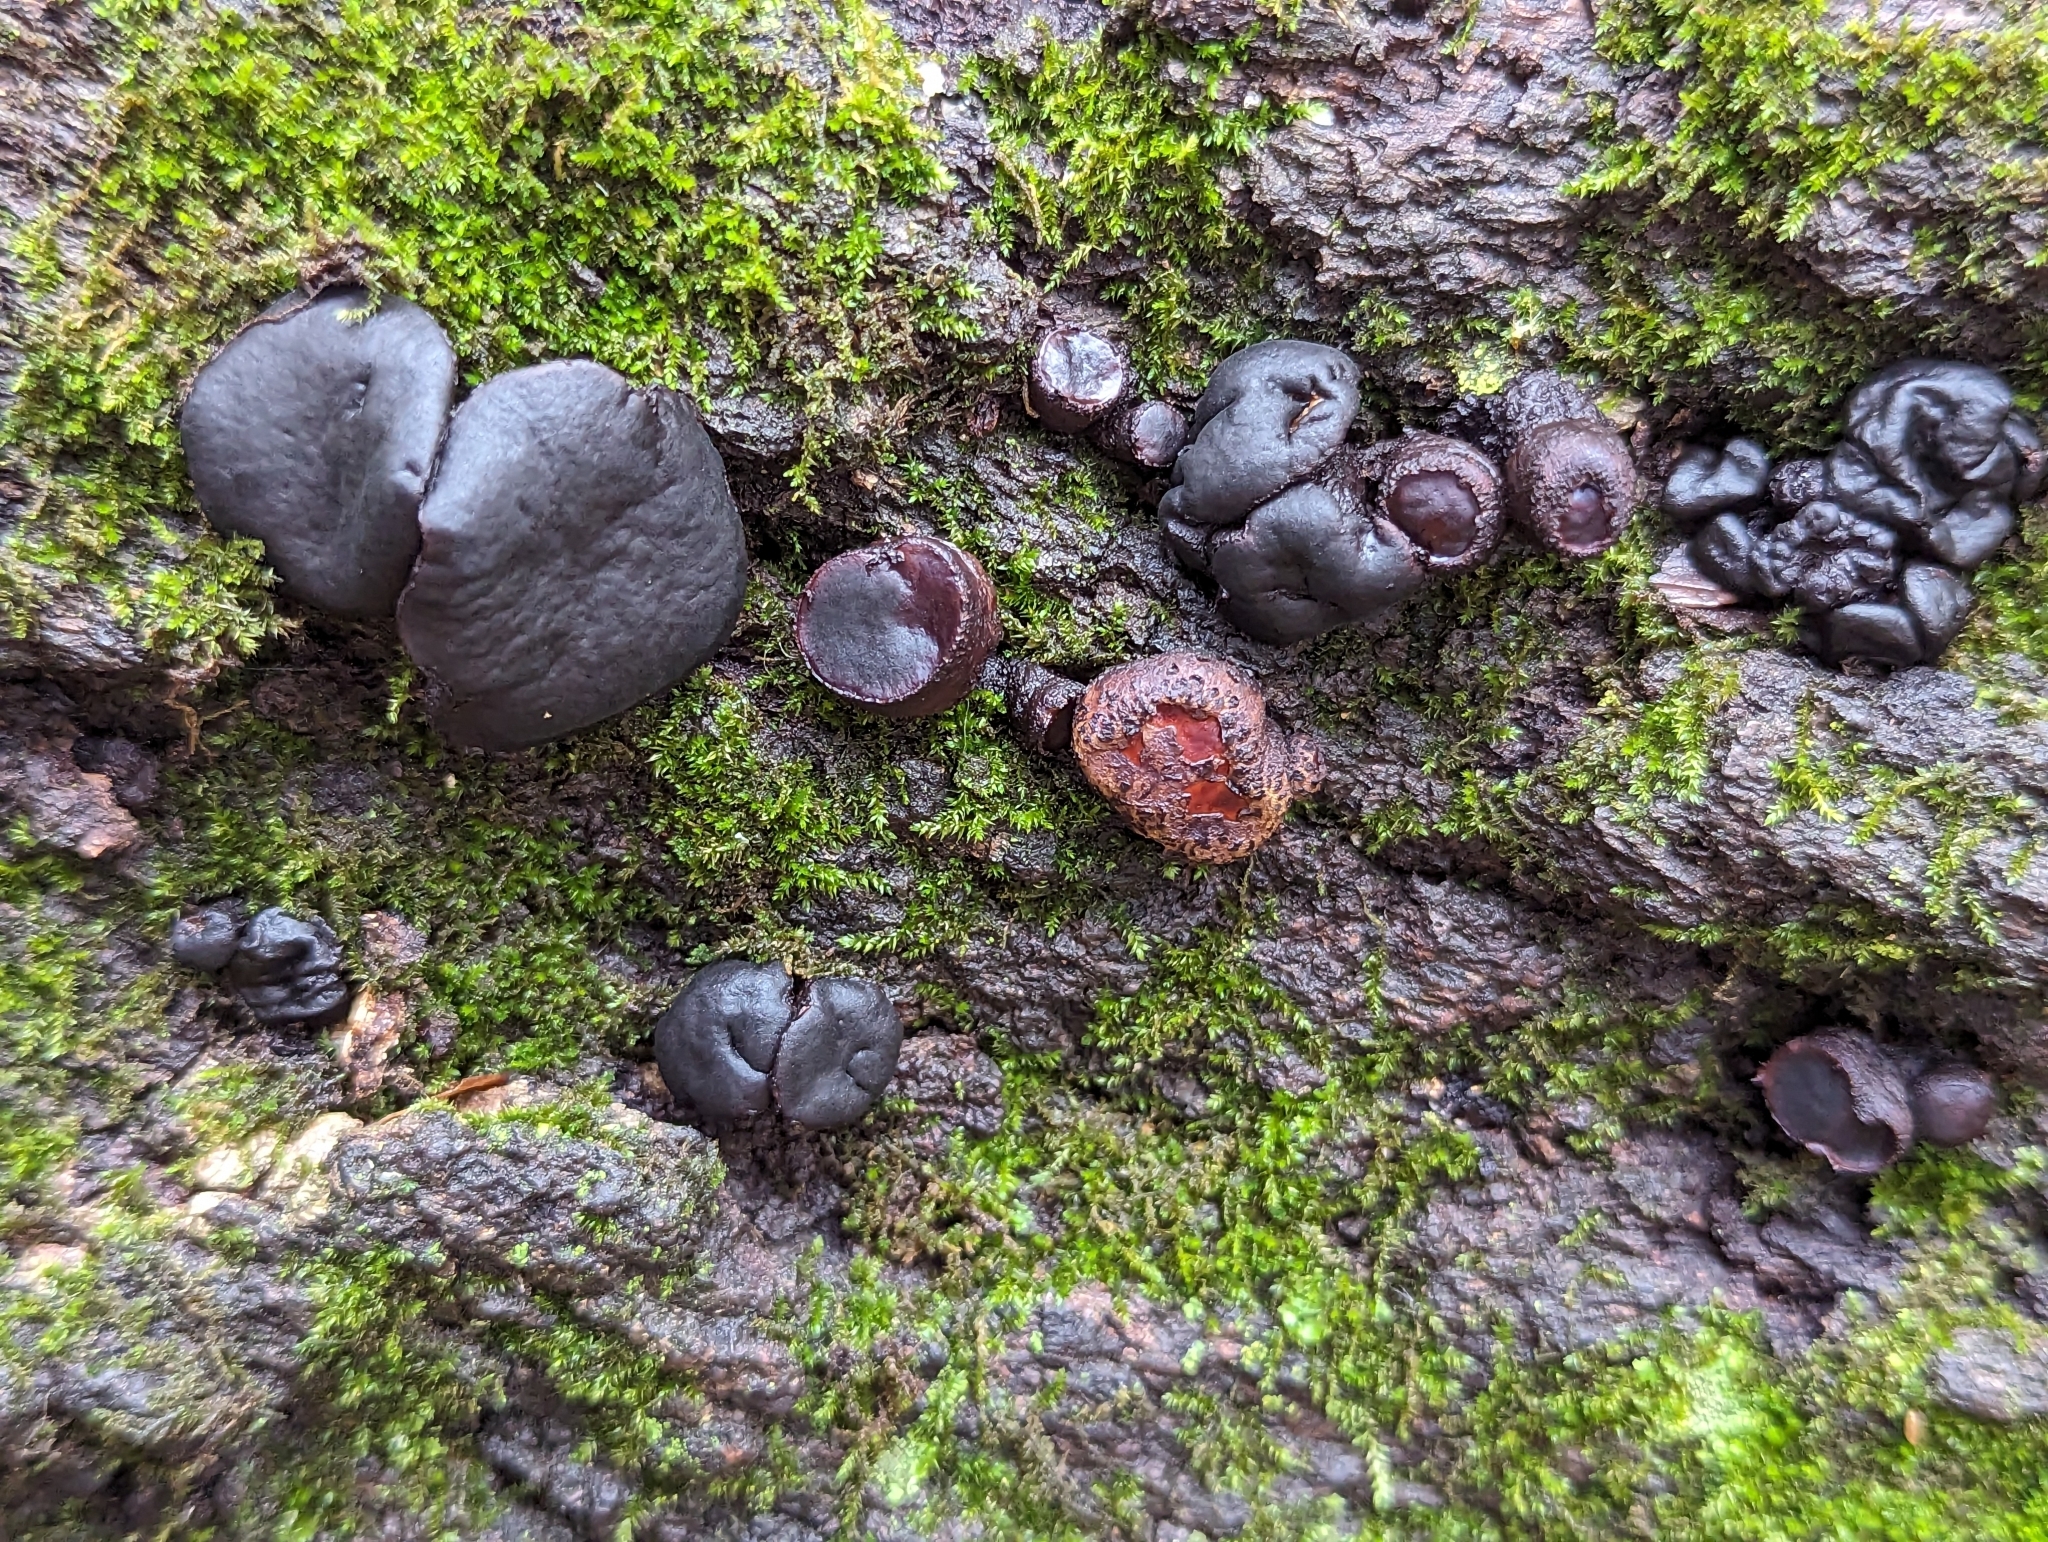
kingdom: Fungi
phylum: Ascomycota
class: Leotiomycetes
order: Phacidiales
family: Phacidiaceae
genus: Bulgaria
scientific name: Bulgaria inquinans
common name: Black bulgar
